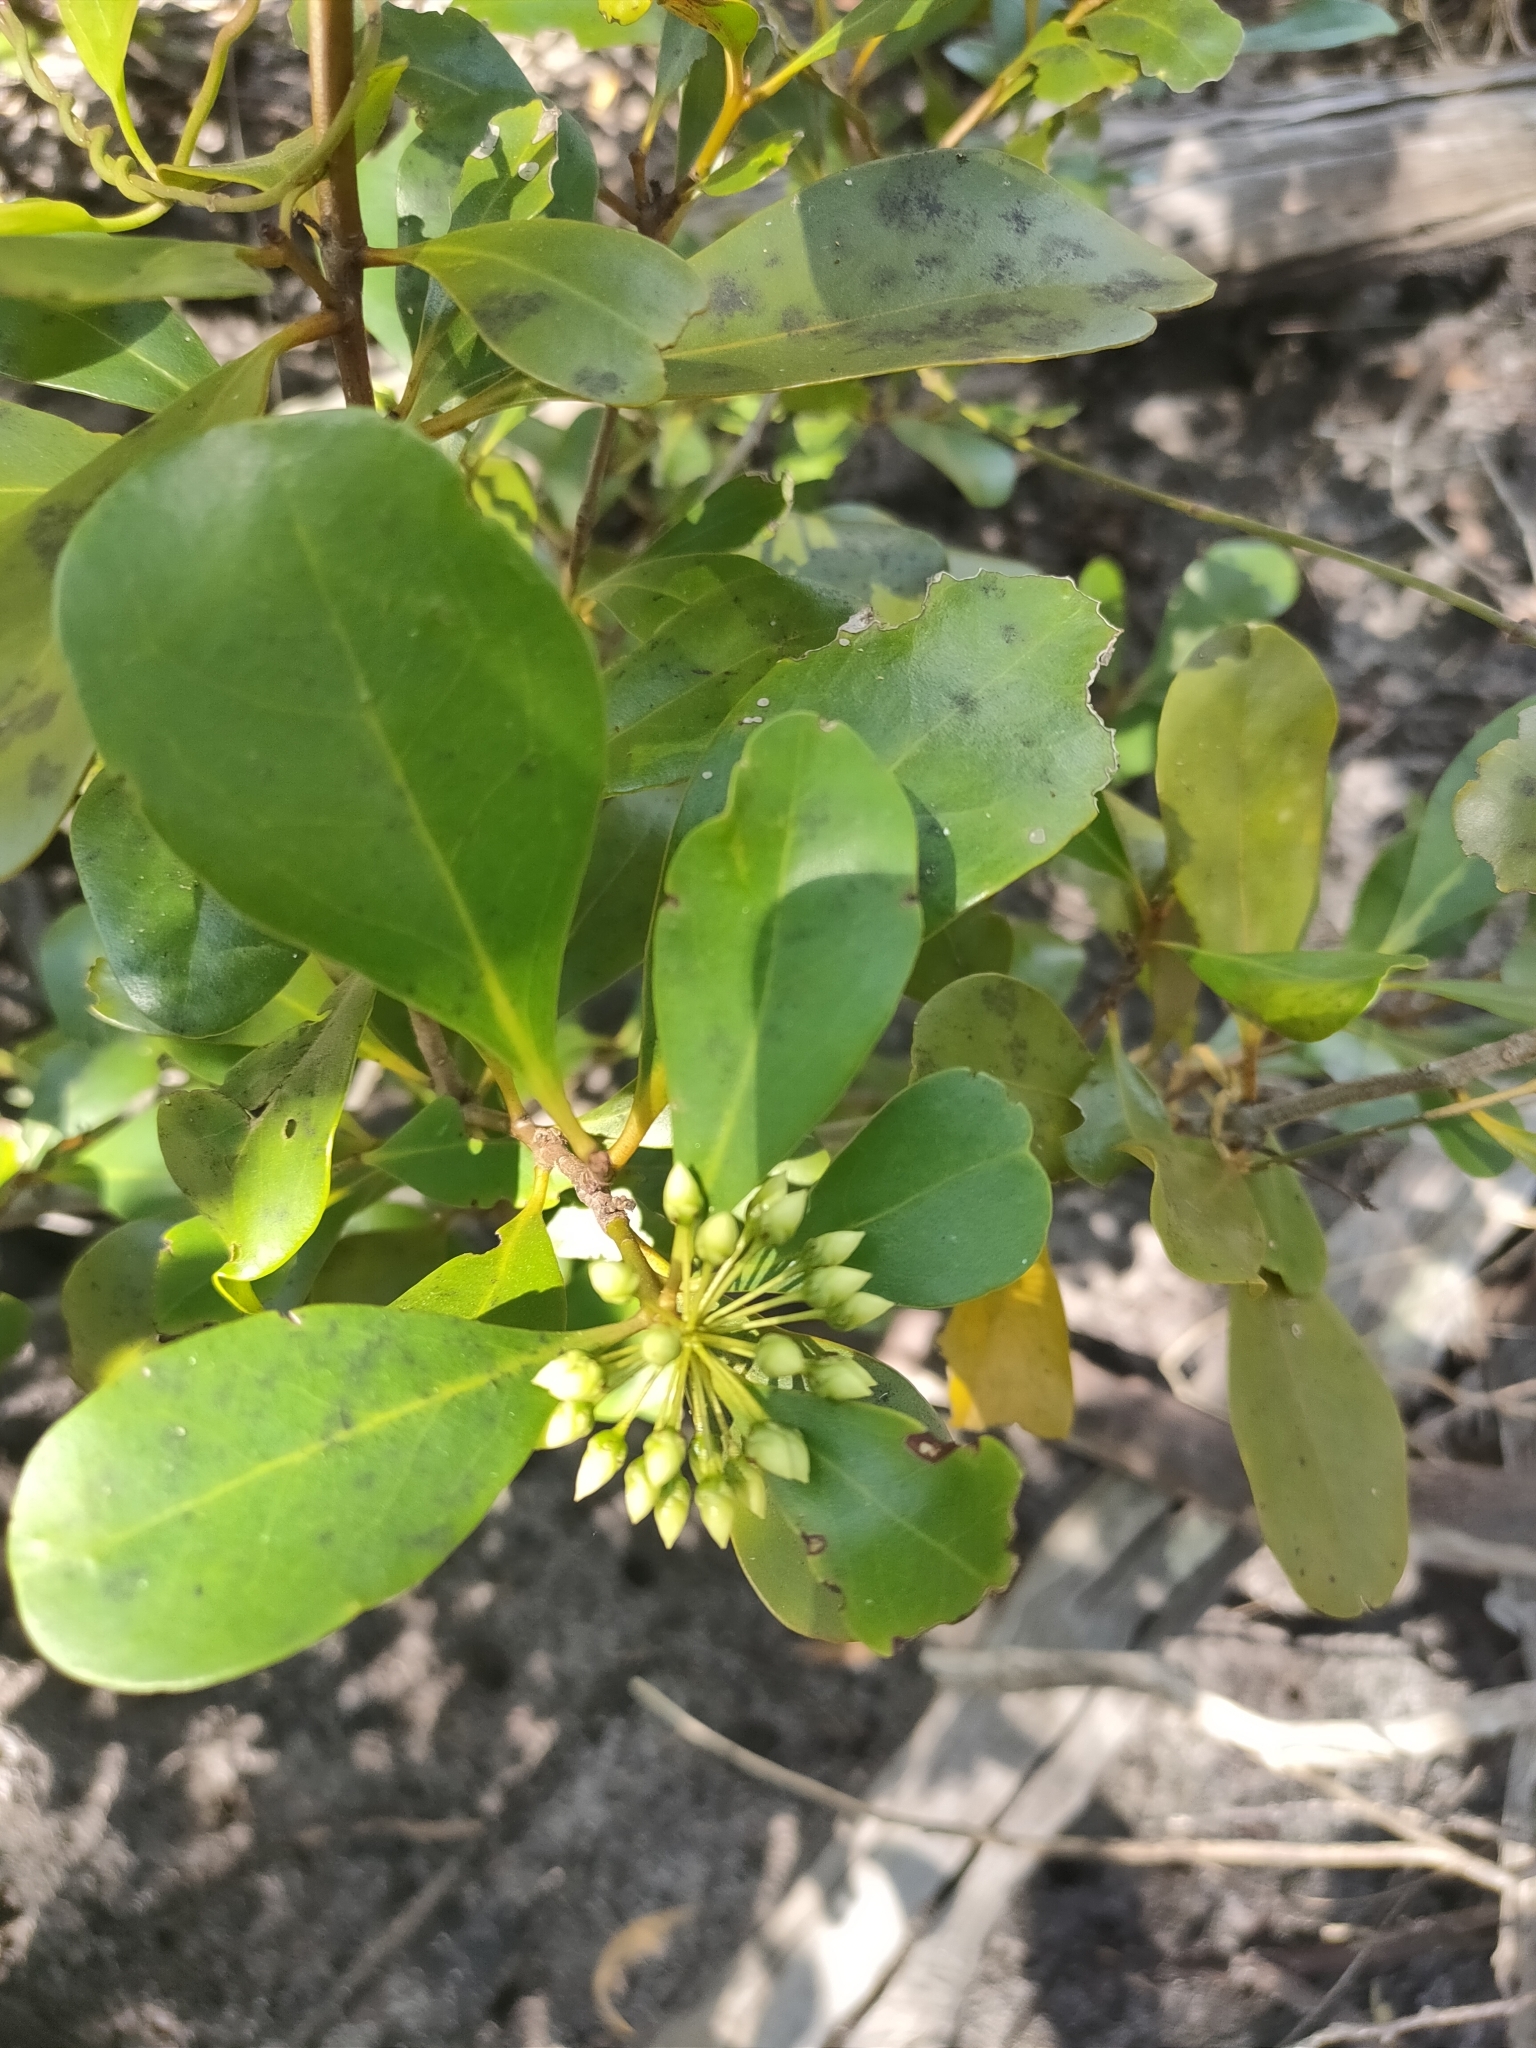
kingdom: Plantae
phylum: Tracheophyta
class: Magnoliopsida
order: Ericales
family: Primulaceae
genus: Aegiceras
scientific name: Aegiceras corniculatum
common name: River mangrove
